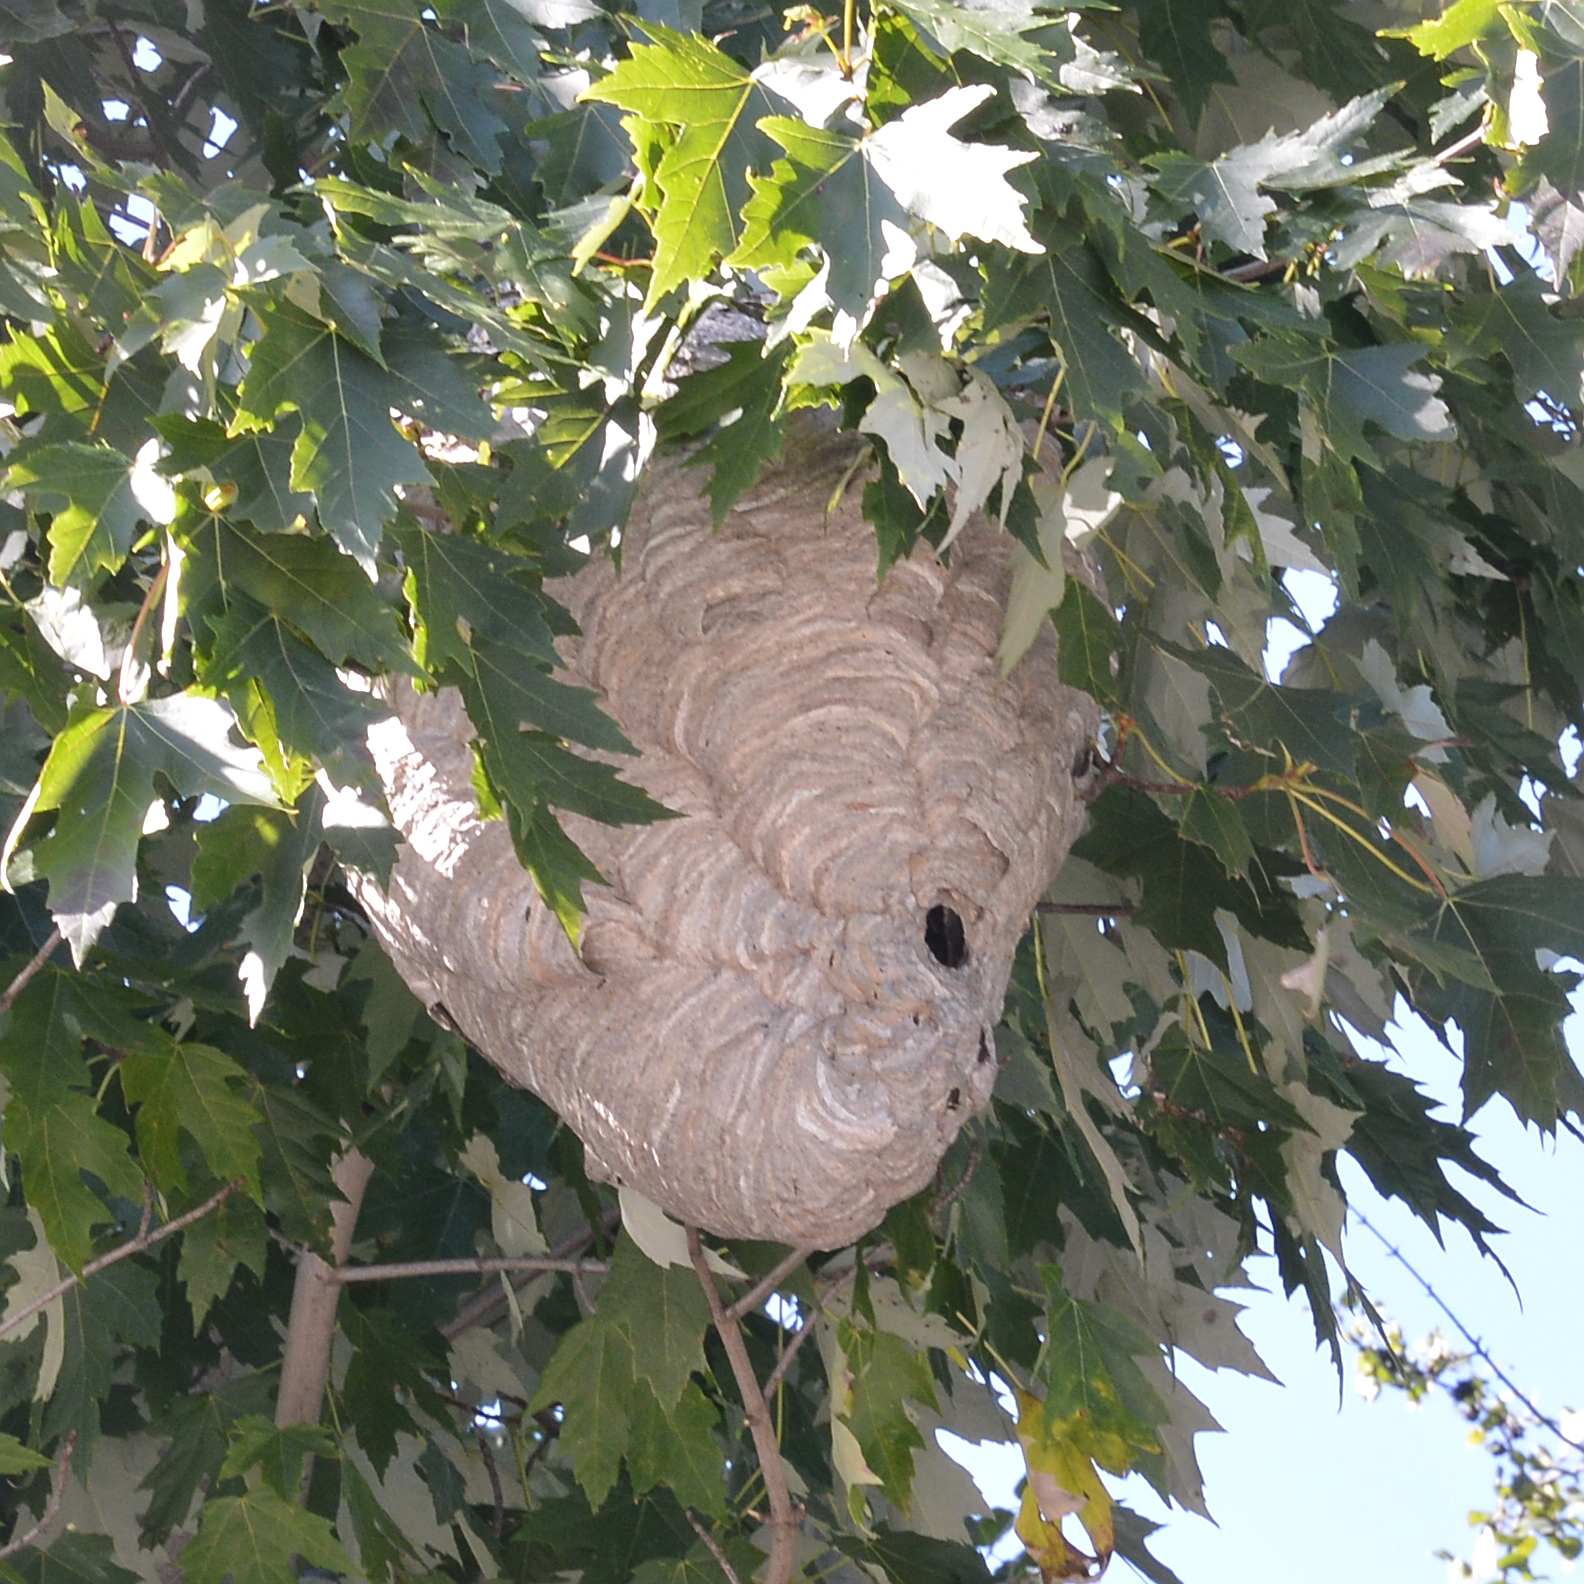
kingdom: Animalia
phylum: Arthropoda
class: Insecta
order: Hymenoptera
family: Vespidae
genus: Dolichovespula
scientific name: Dolichovespula maculata
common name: Bald-faced hornet
